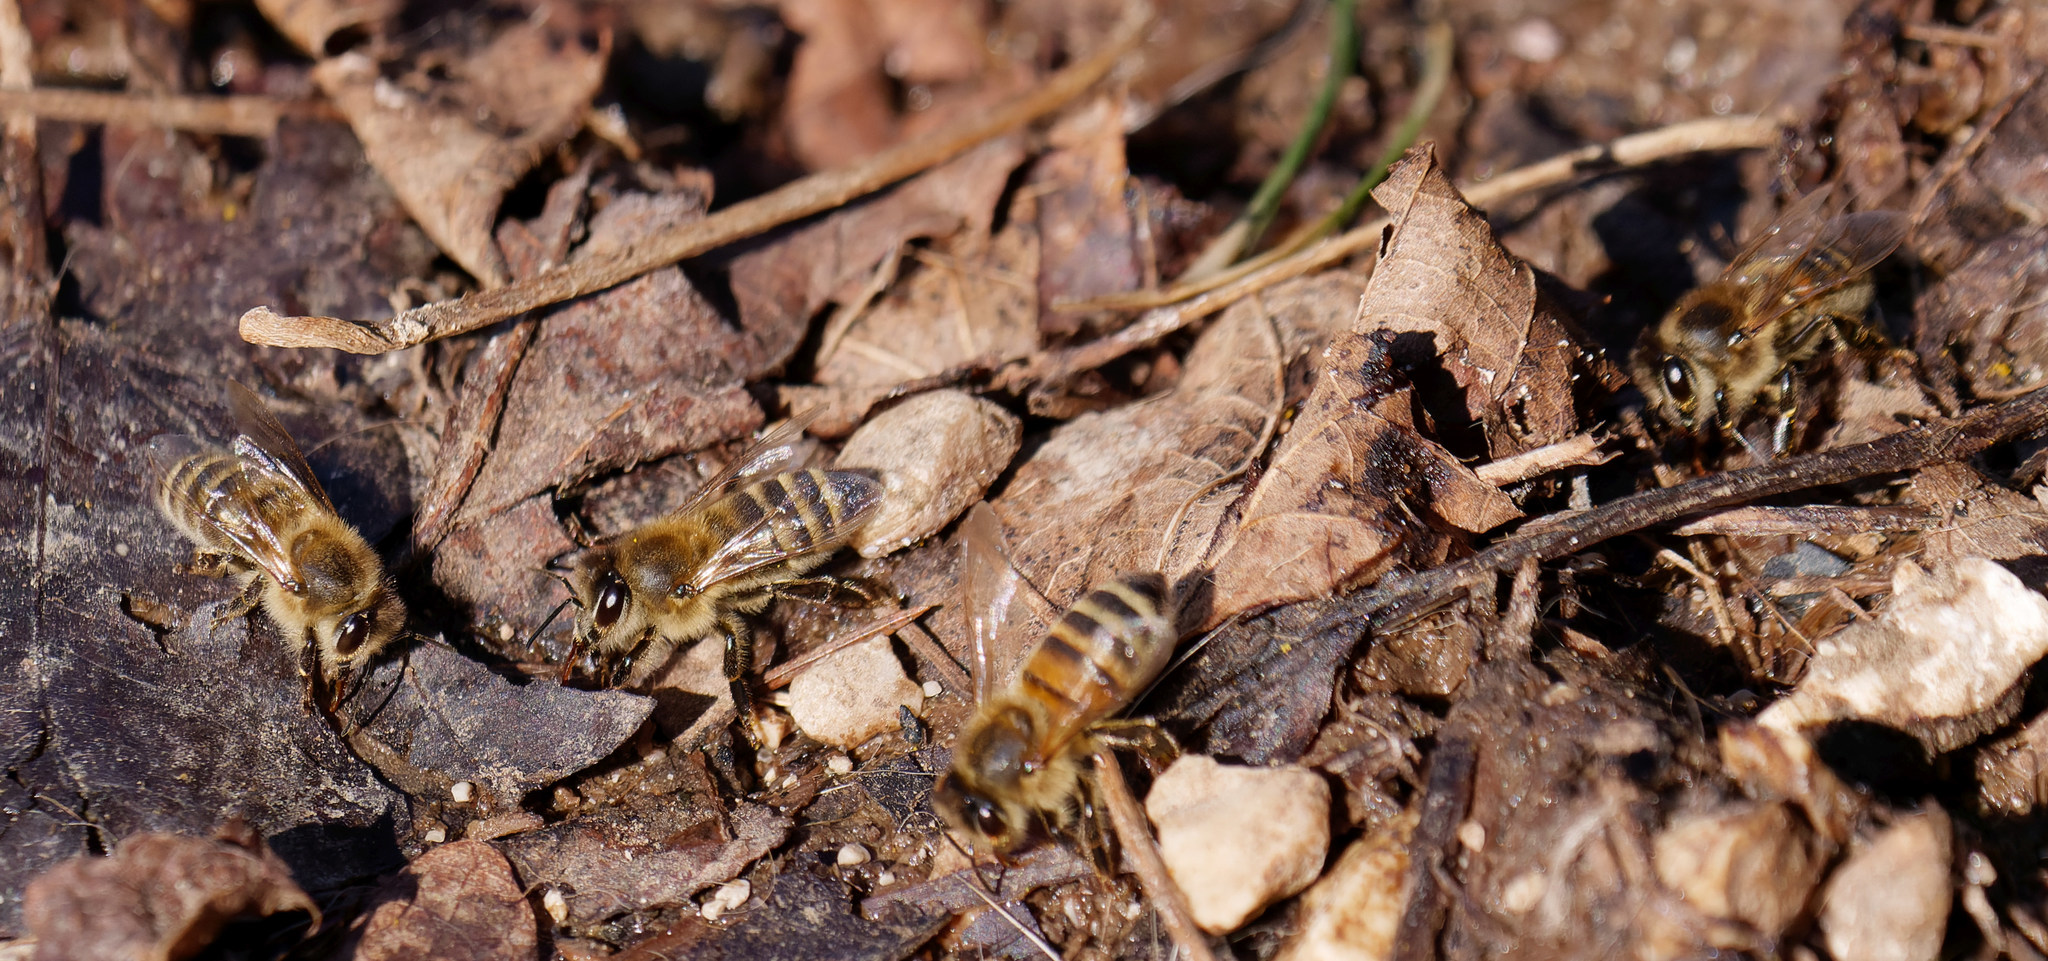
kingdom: Animalia
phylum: Arthropoda
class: Insecta
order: Hymenoptera
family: Apidae
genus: Apis
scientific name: Apis mellifera
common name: Honey bee
